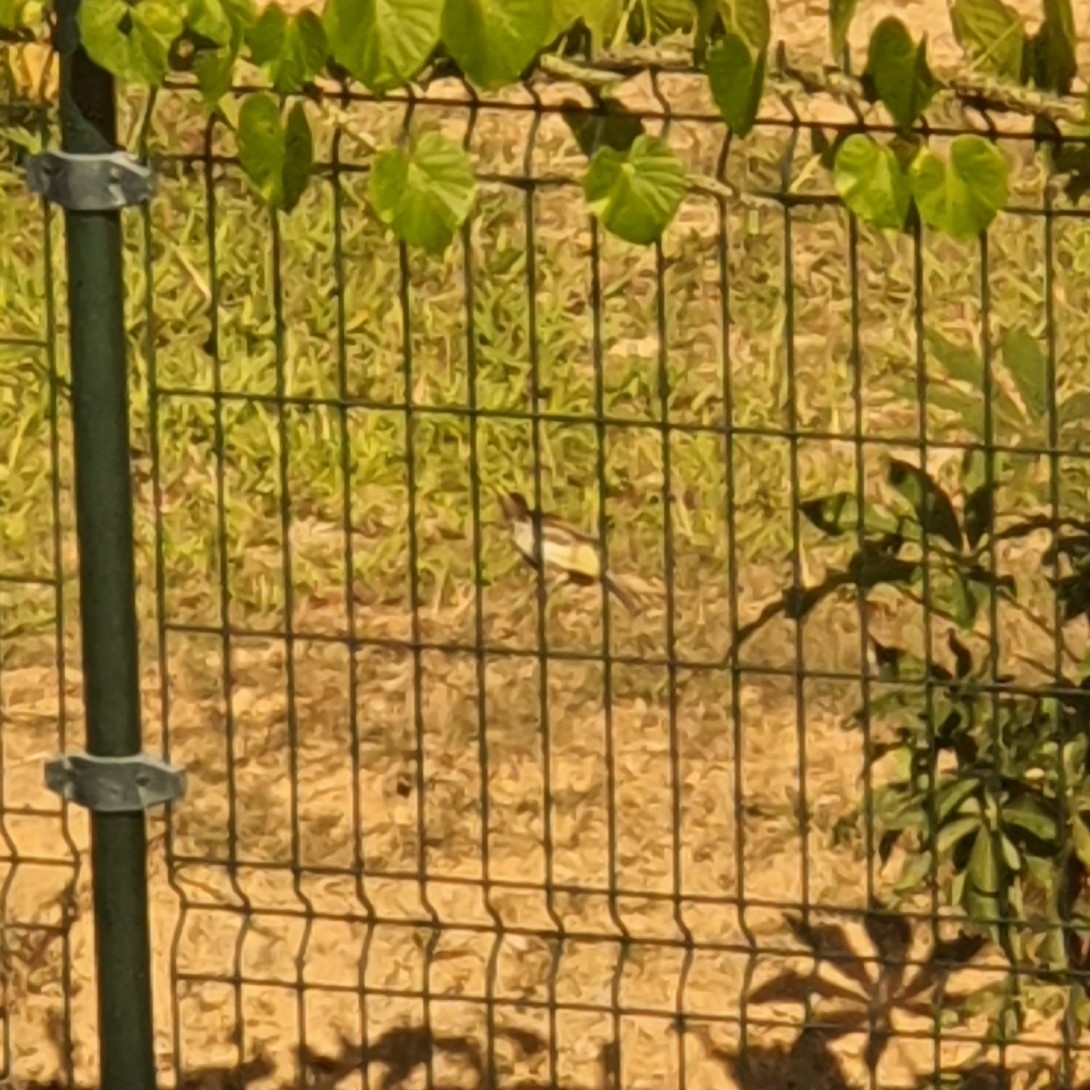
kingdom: Animalia
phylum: Chordata
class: Aves
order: Passeriformes
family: Pycnonotidae
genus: Pycnonotus
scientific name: Pycnonotus goiavier
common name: Yellow-vented bulbul
